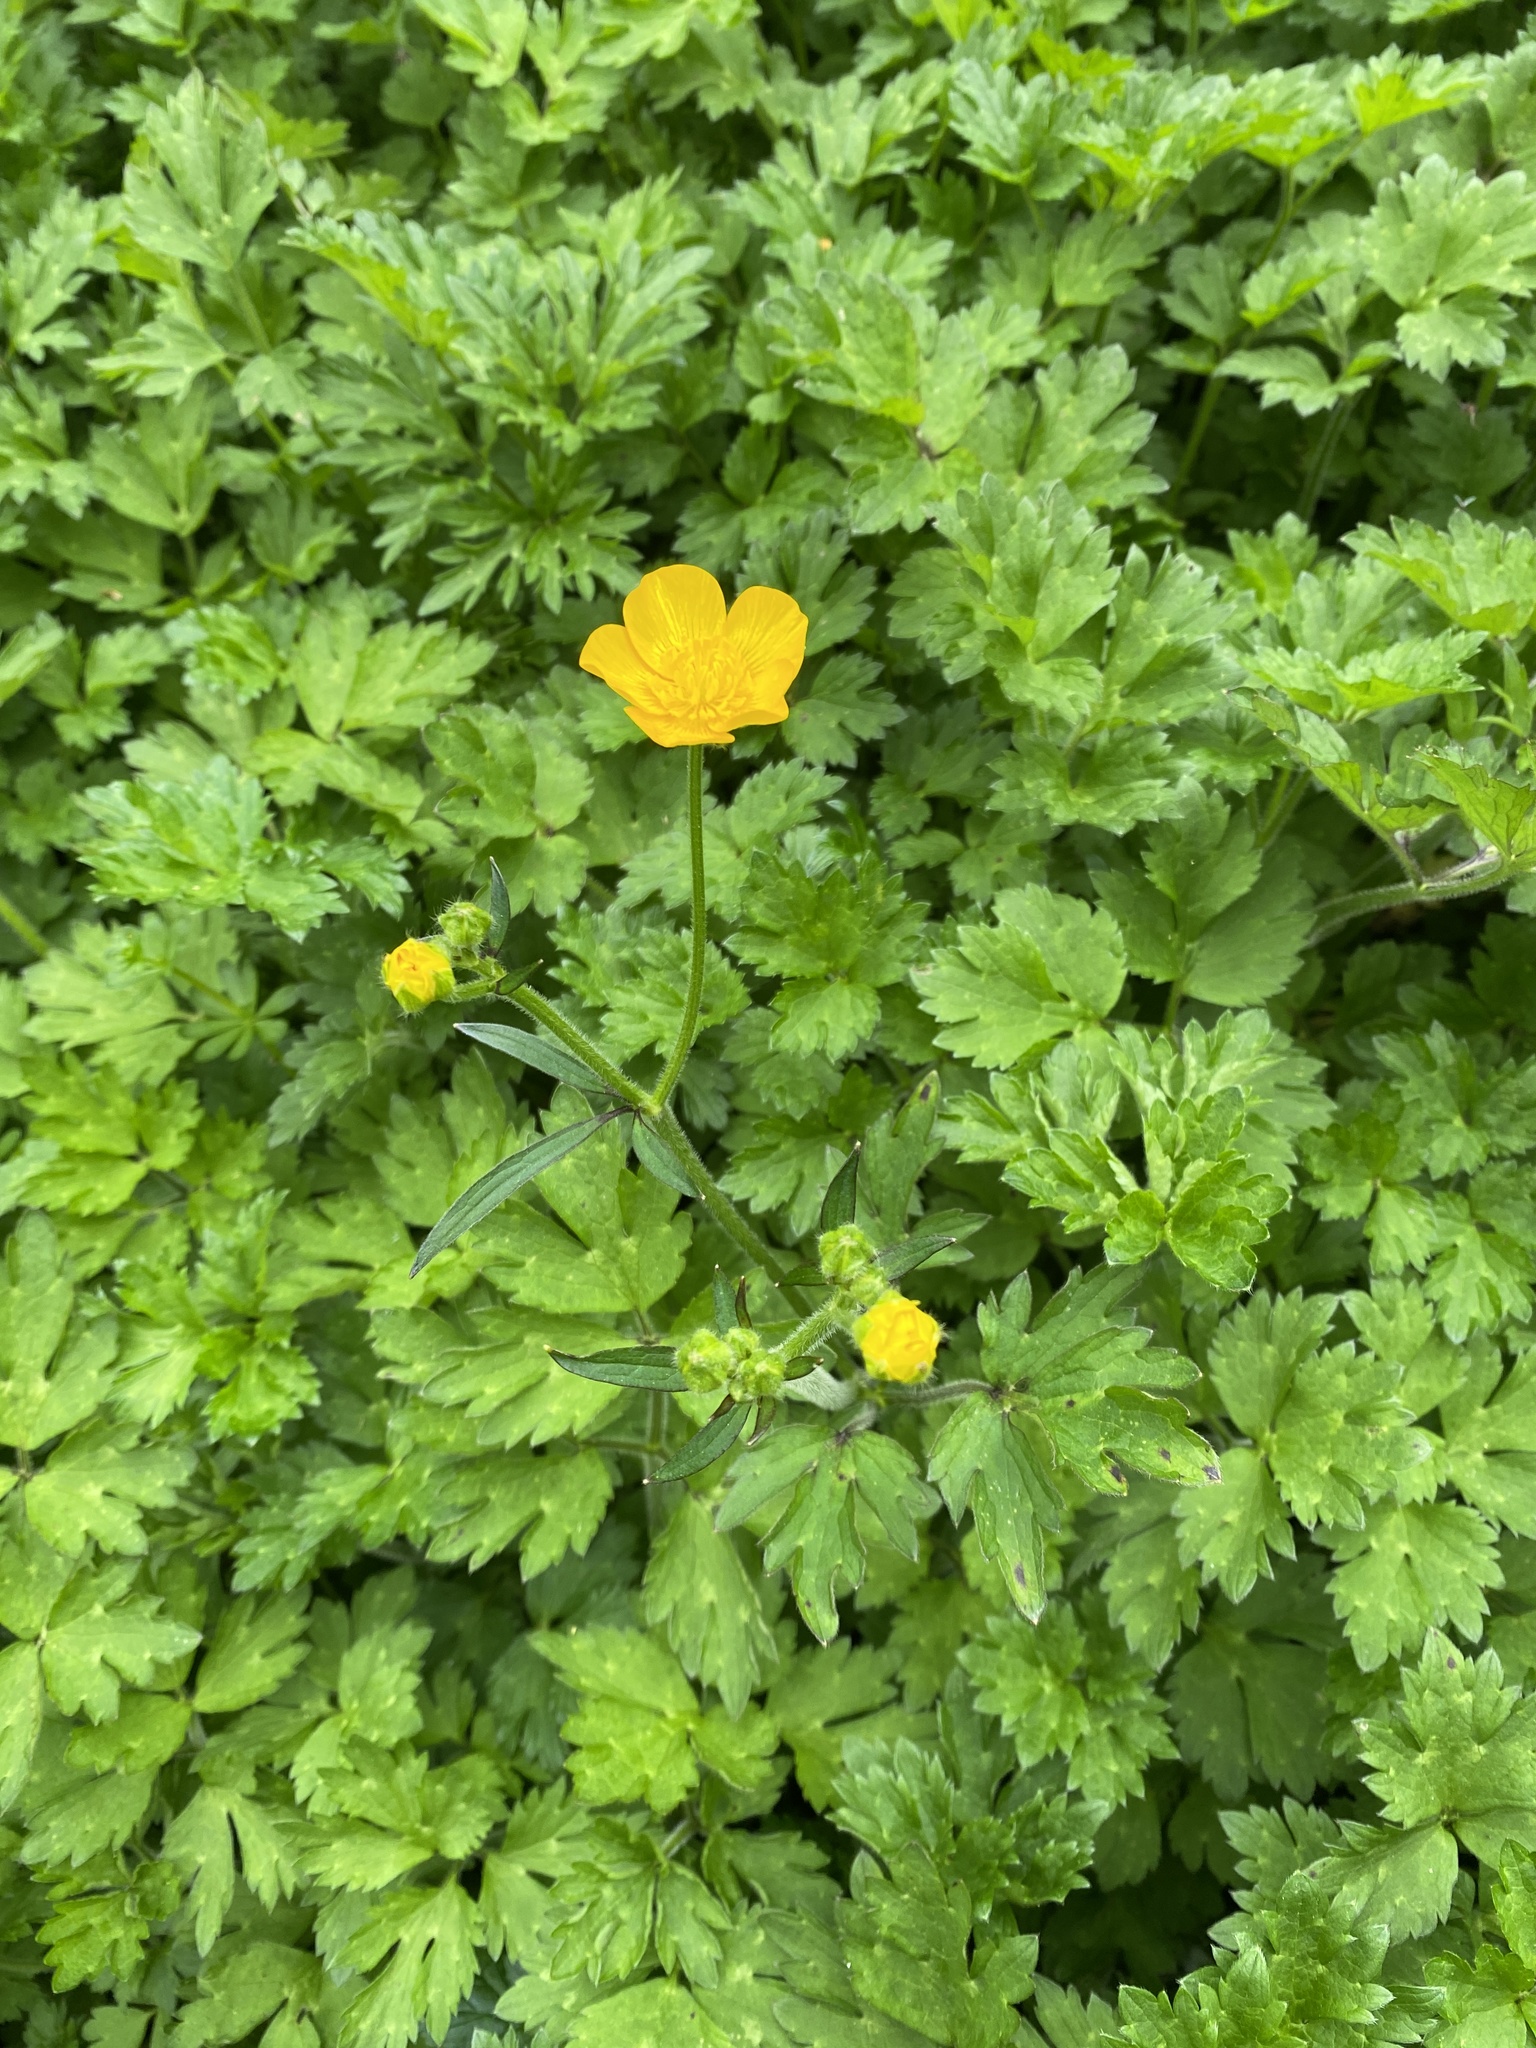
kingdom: Plantae
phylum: Tracheophyta
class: Magnoliopsida
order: Ranunculales
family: Ranunculaceae
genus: Ranunculus
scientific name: Ranunculus repens
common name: Creeping buttercup
